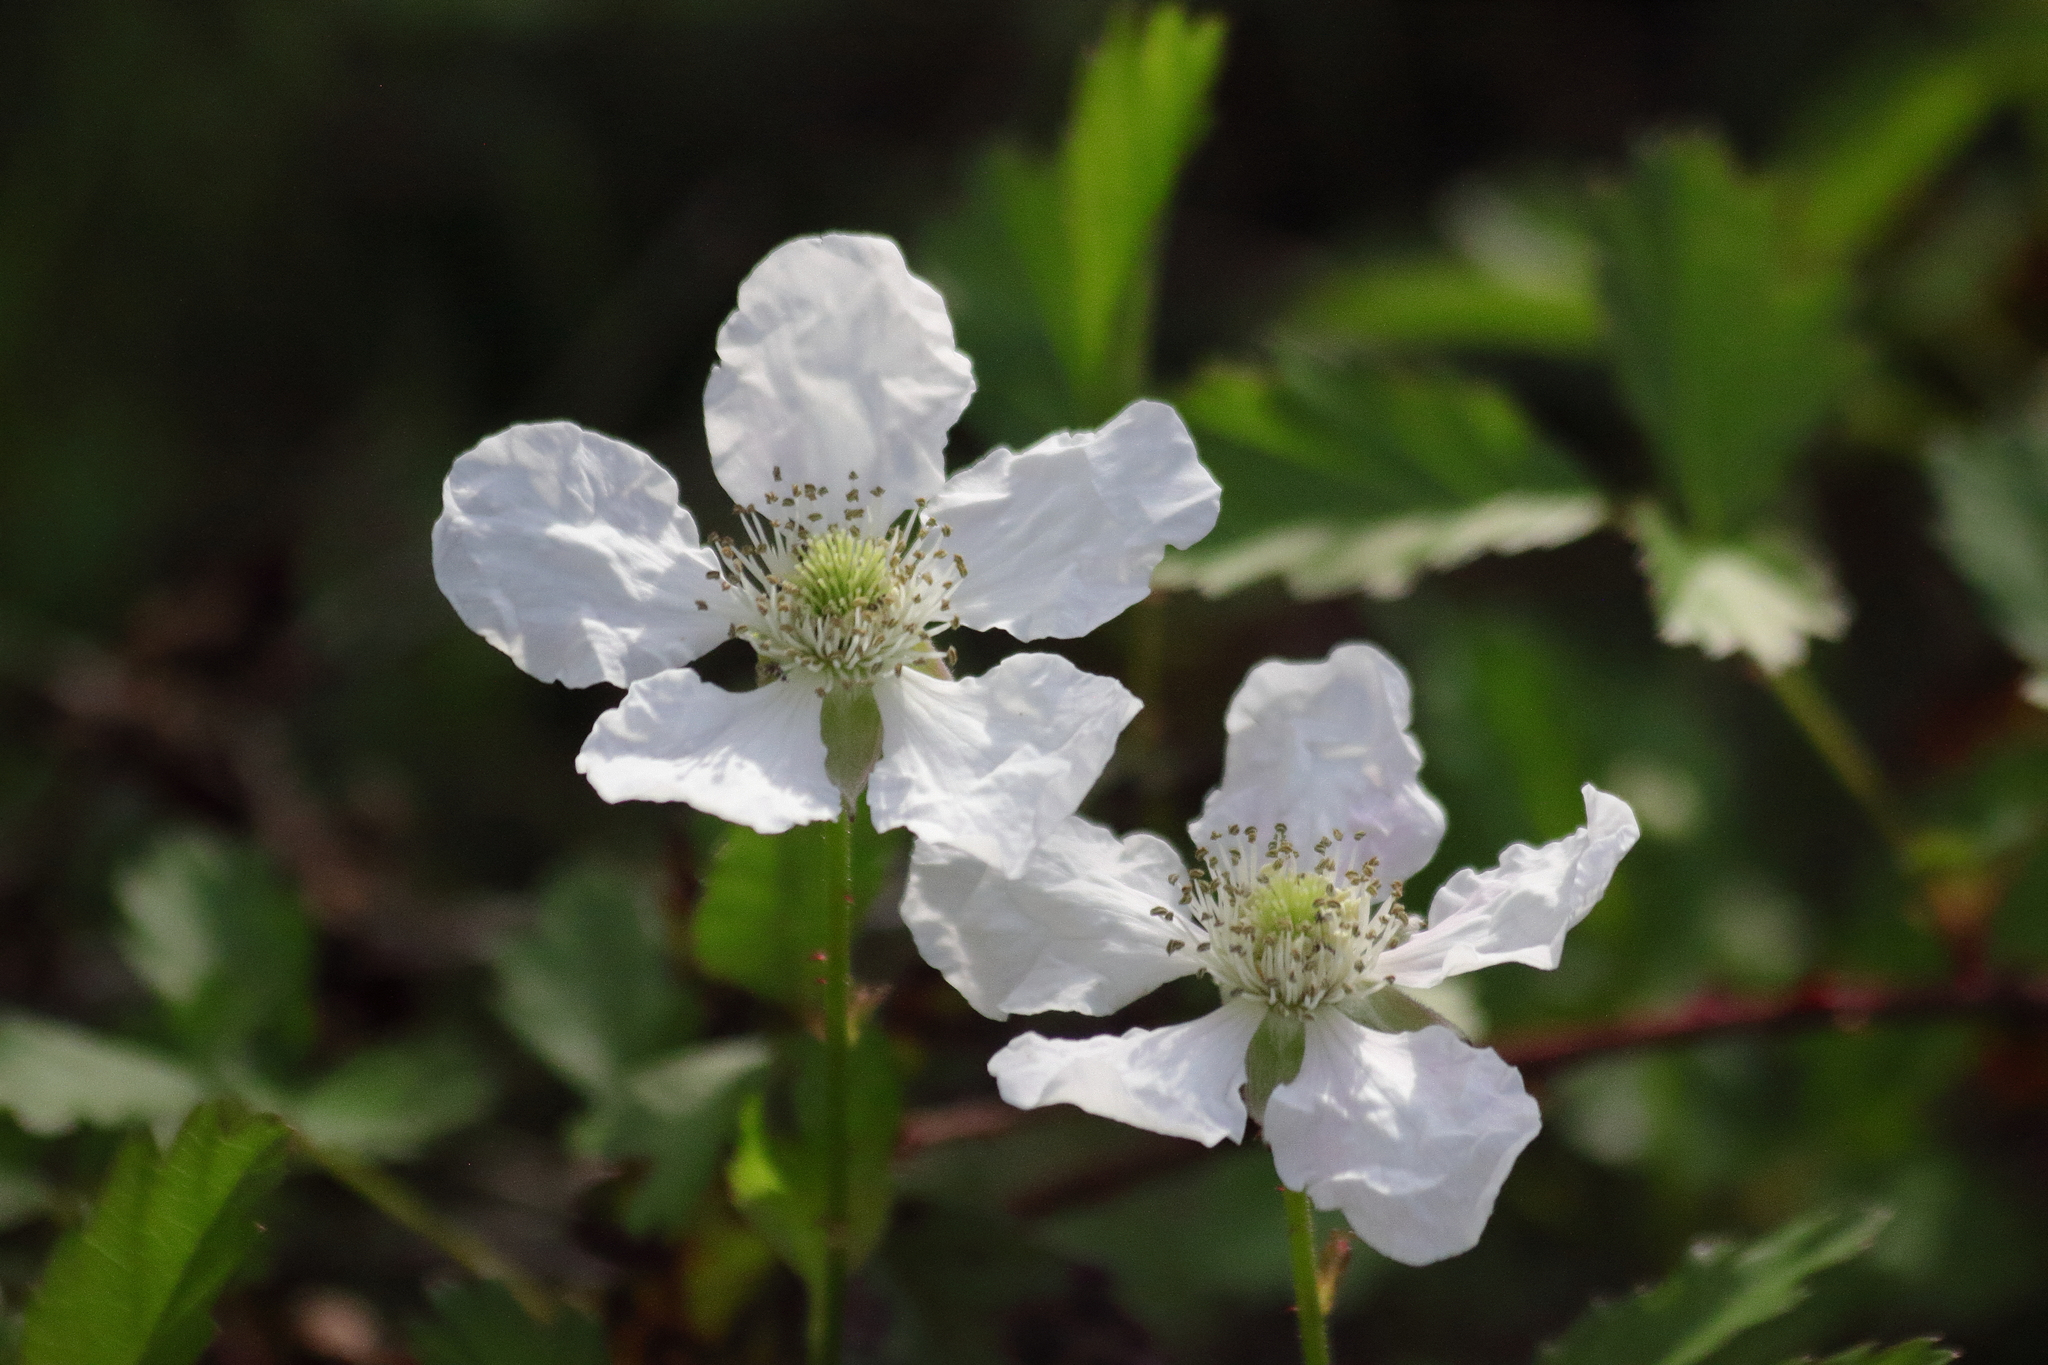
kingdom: Plantae
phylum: Tracheophyta
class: Magnoliopsida
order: Rosales
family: Rosaceae
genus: Rubus
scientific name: Rubus trivialis
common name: Southern dewberry
